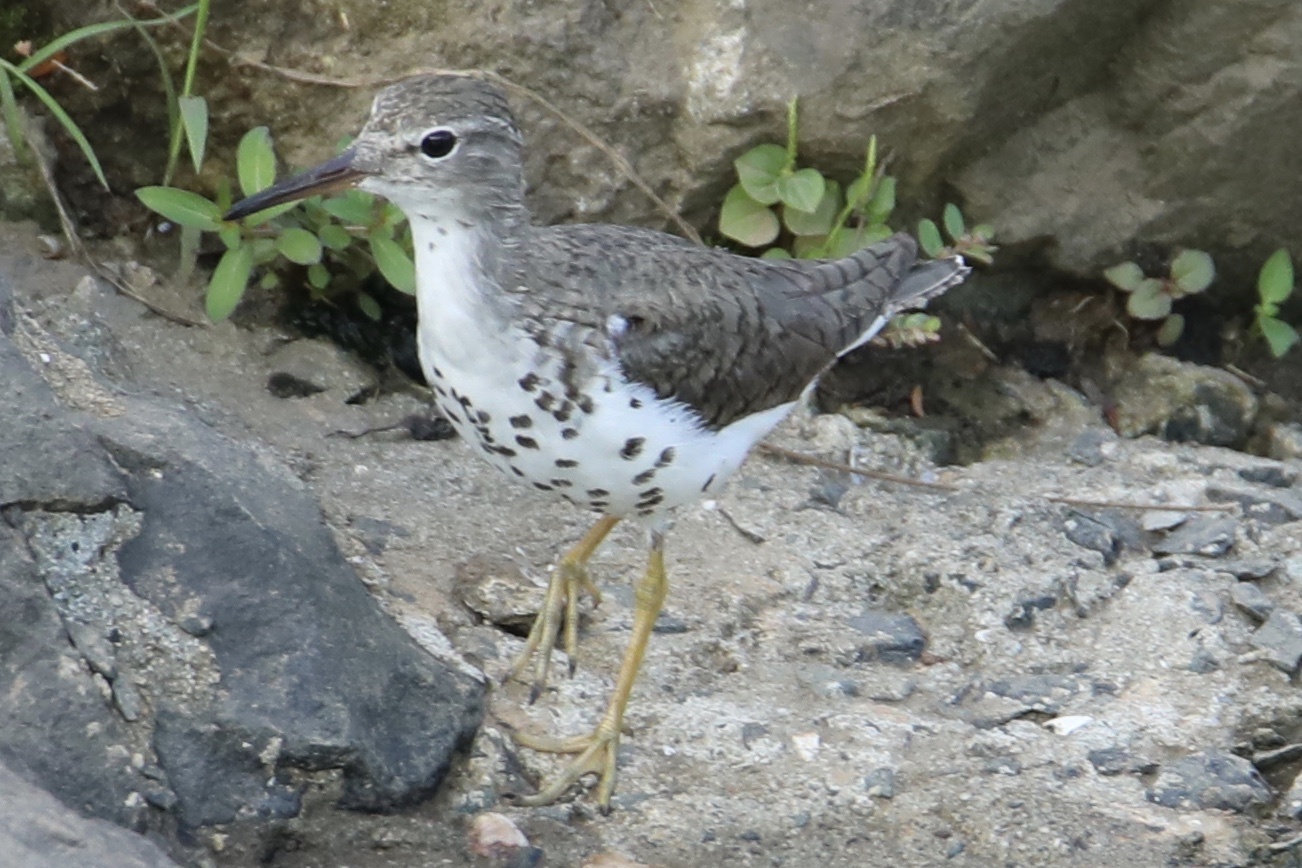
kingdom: Animalia
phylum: Chordata
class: Aves
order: Charadriiformes
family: Scolopacidae
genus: Actitis
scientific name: Actitis macularius
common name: Spotted sandpiper
